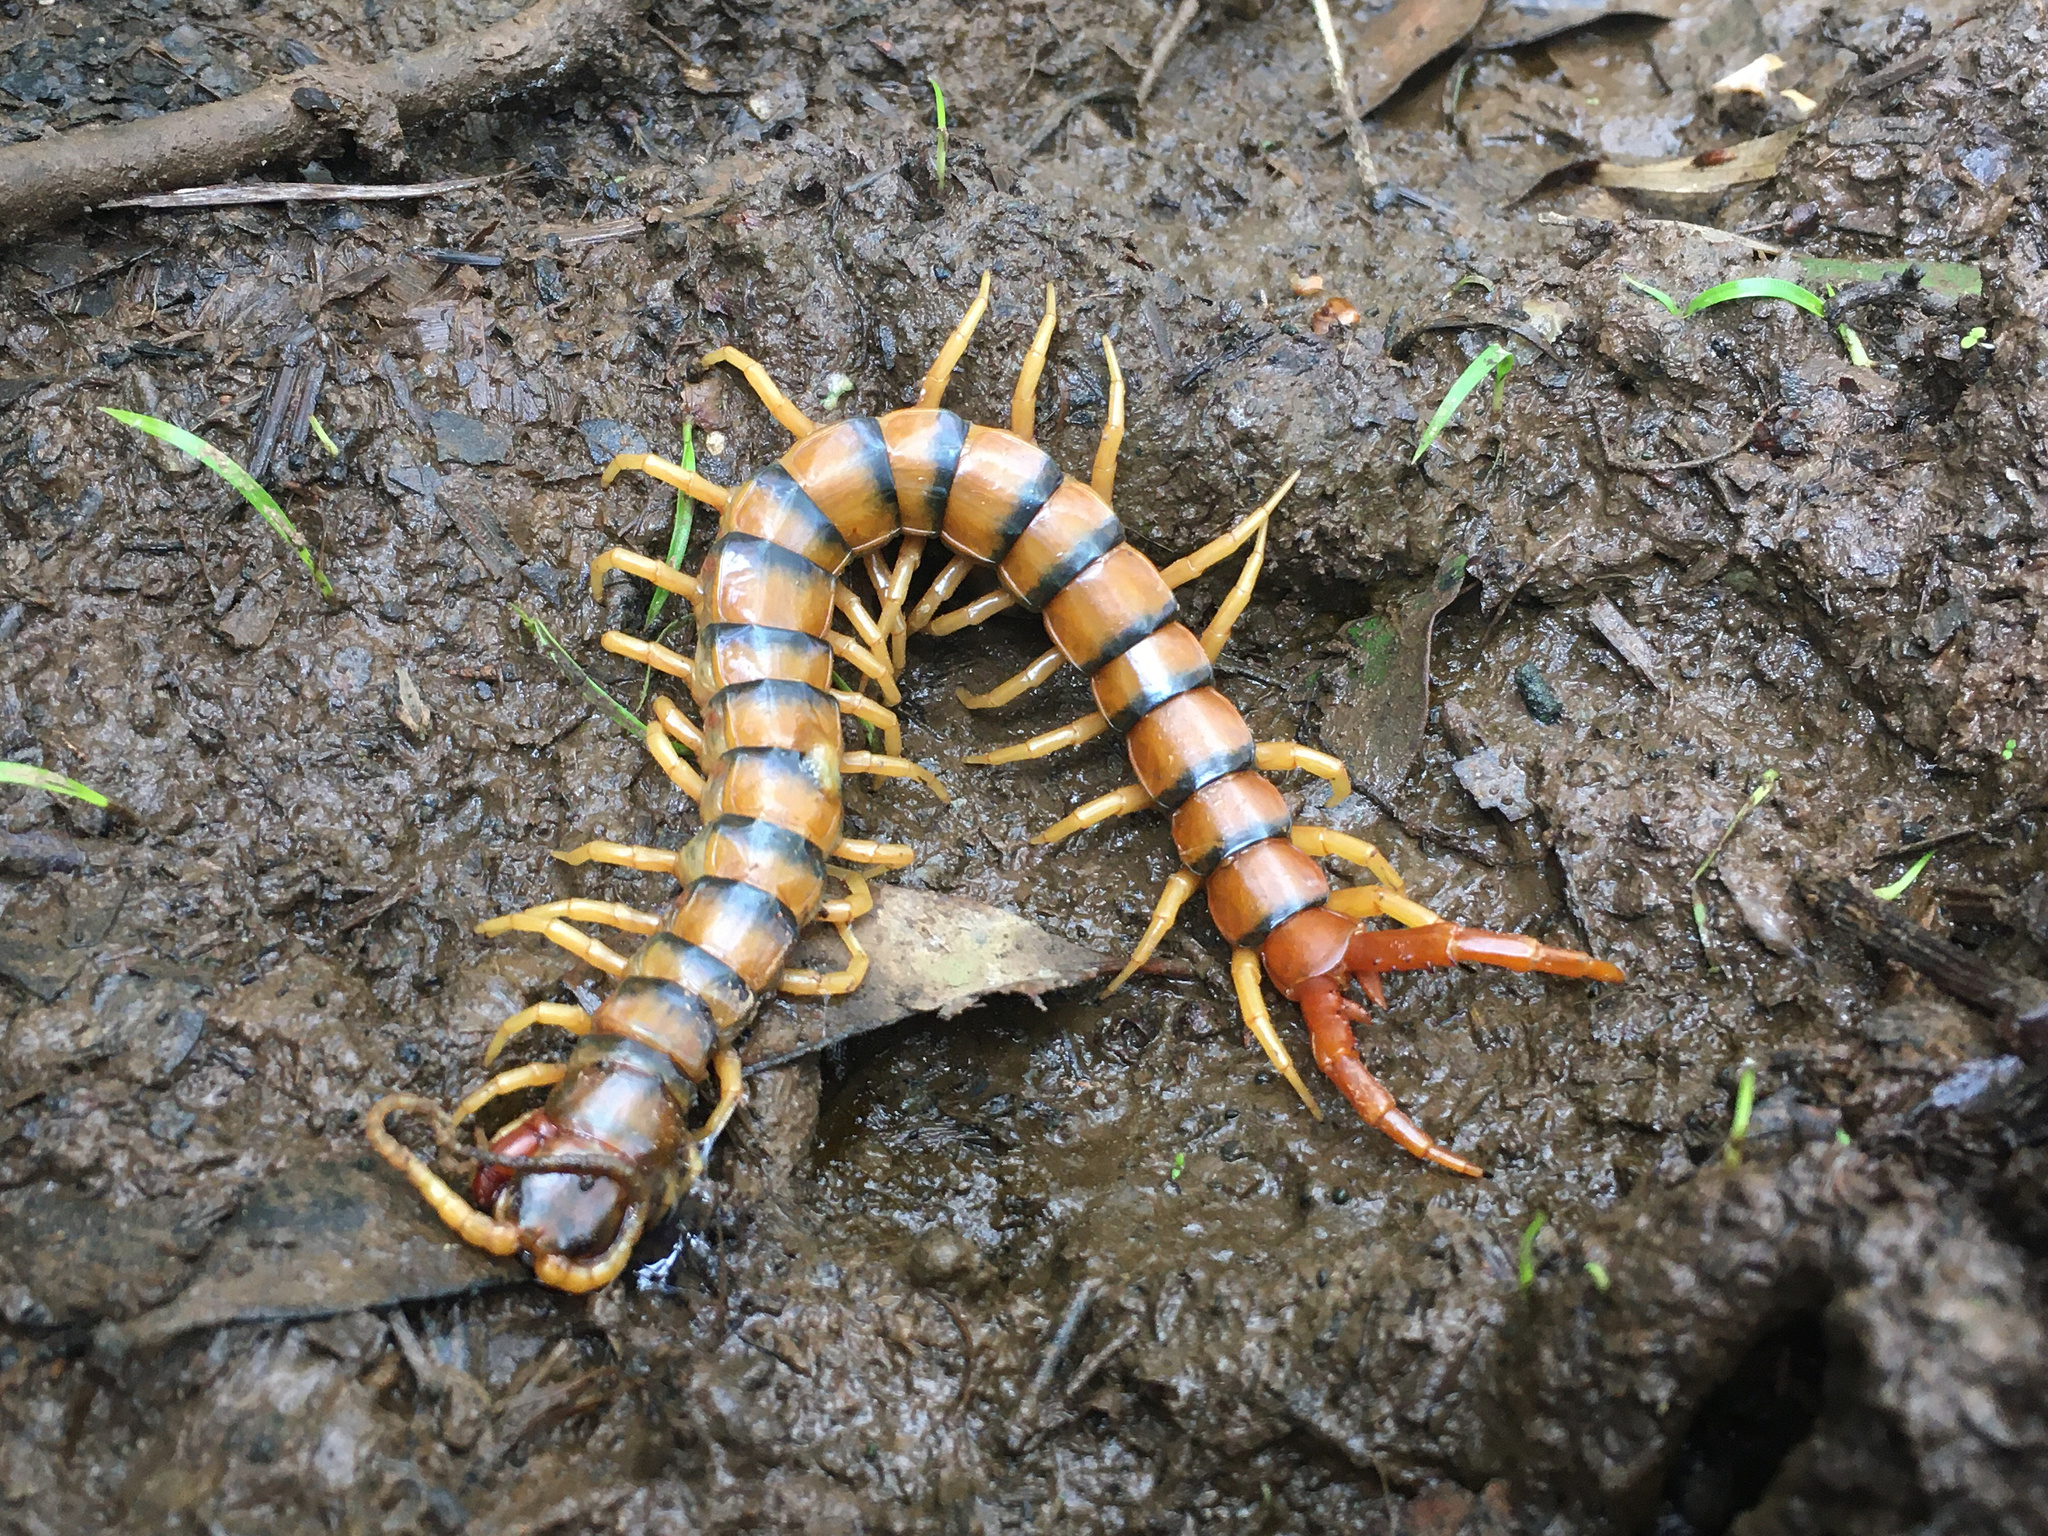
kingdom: Animalia
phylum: Arthropoda
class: Chilopoda
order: Scolopendromorpha
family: Scolopendridae
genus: Ethmostigmus
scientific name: Ethmostigmus rubripes
